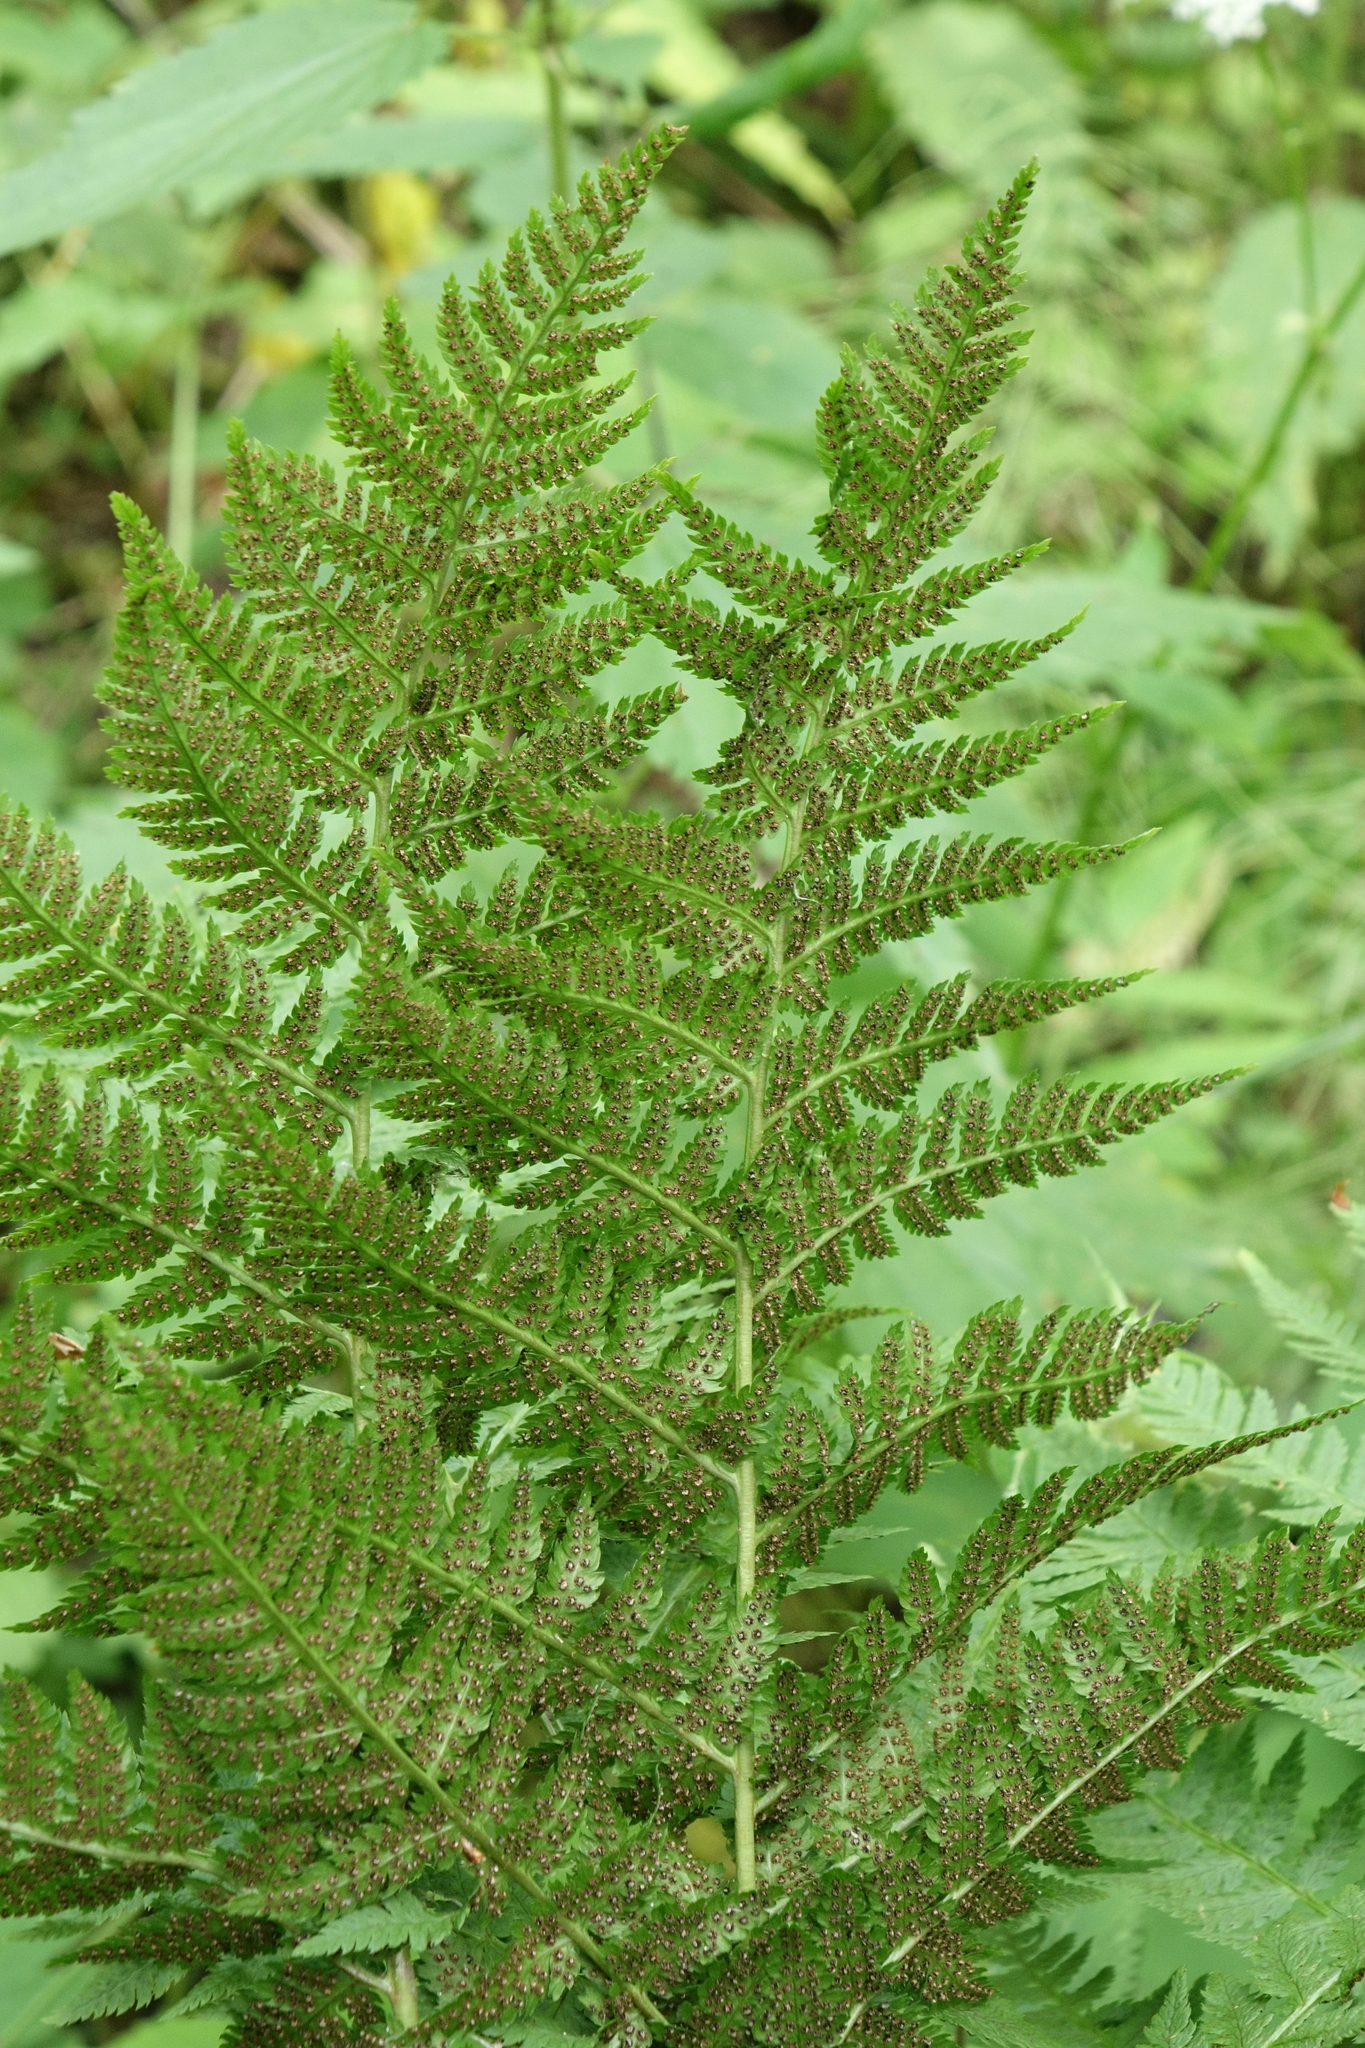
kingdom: Plantae
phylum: Tracheophyta
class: Polypodiopsida
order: Polypodiales
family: Dryopteridaceae
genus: Dryopteris
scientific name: Dryopteris carthusiana
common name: Narrow buckler-fern
